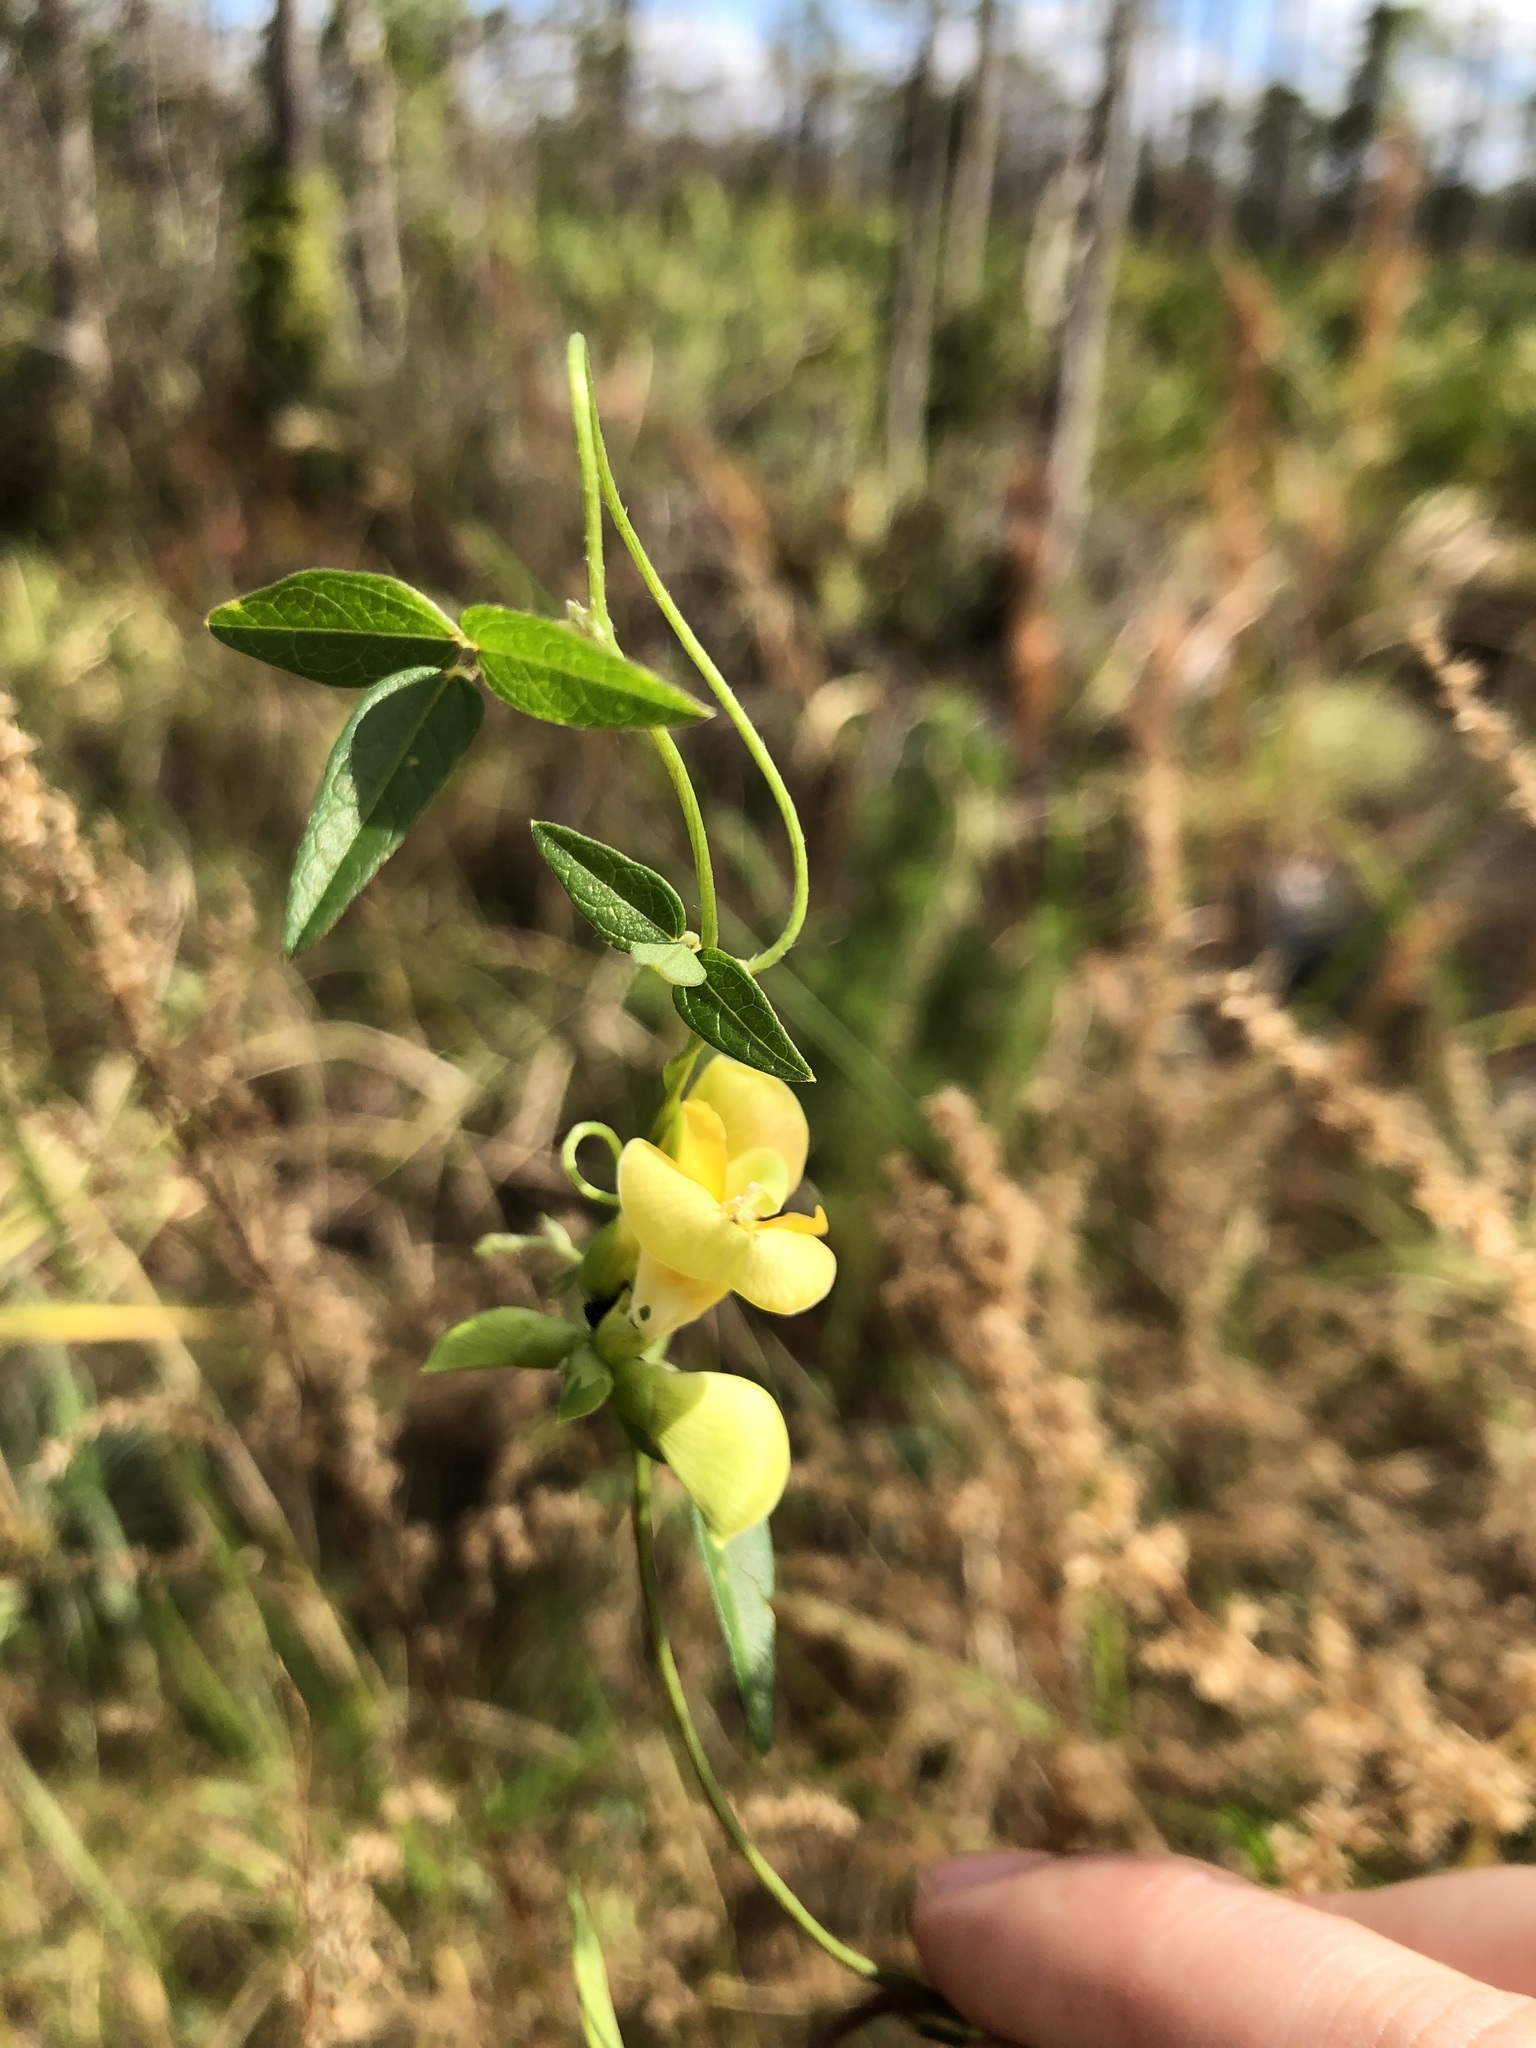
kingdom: Plantae
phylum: Tracheophyta
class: Magnoliopsida
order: Fabales
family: Fabaceae
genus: Vigna
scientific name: Vigna luteola
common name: Hairypod cowpea
